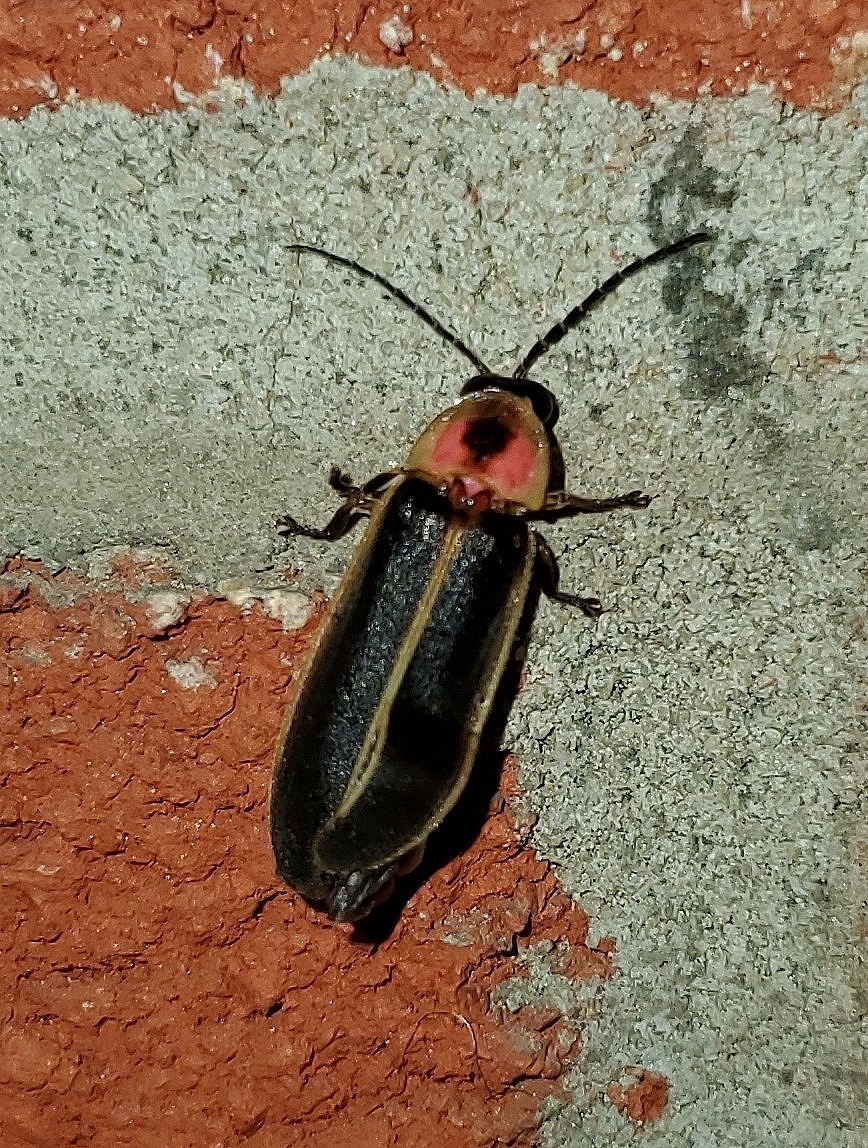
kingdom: Animalia
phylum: Arthropoda
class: Insecta
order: Coleoptera
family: Lampyridae
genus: Photinus
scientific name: Photinus pyralis
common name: Big dipper firefly
